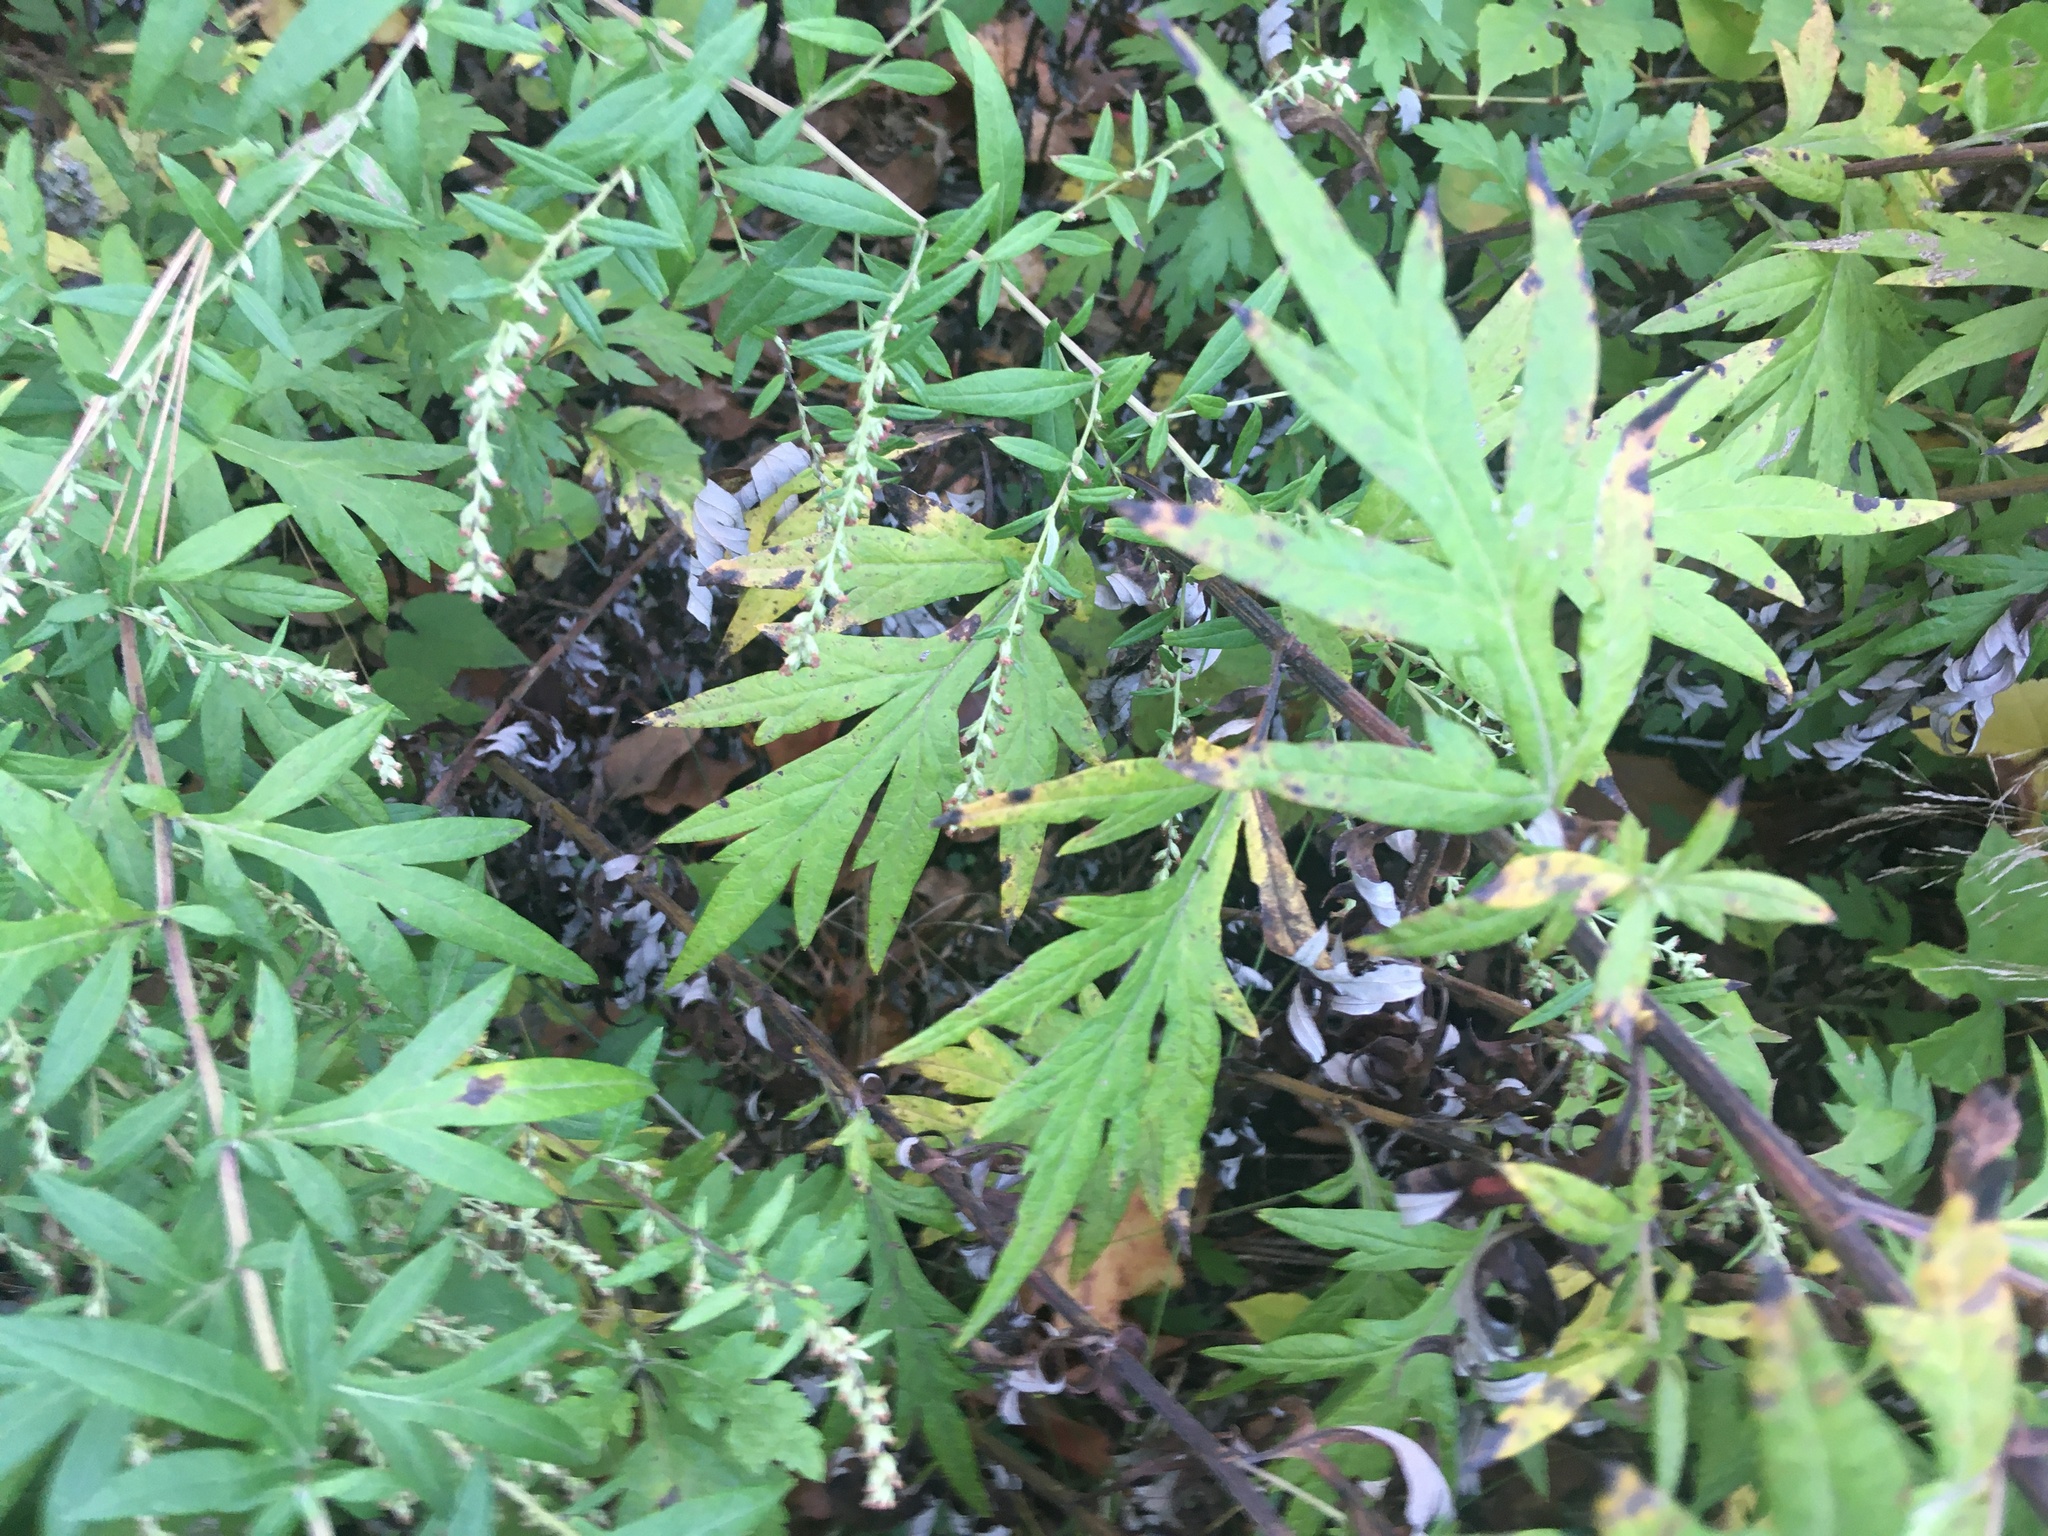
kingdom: Plantae
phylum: Tracheophyta
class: Magnoliopsida
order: Asterales
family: Asteraceae
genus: Artemisia
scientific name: Artemisia vulgaris
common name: Mugwort
